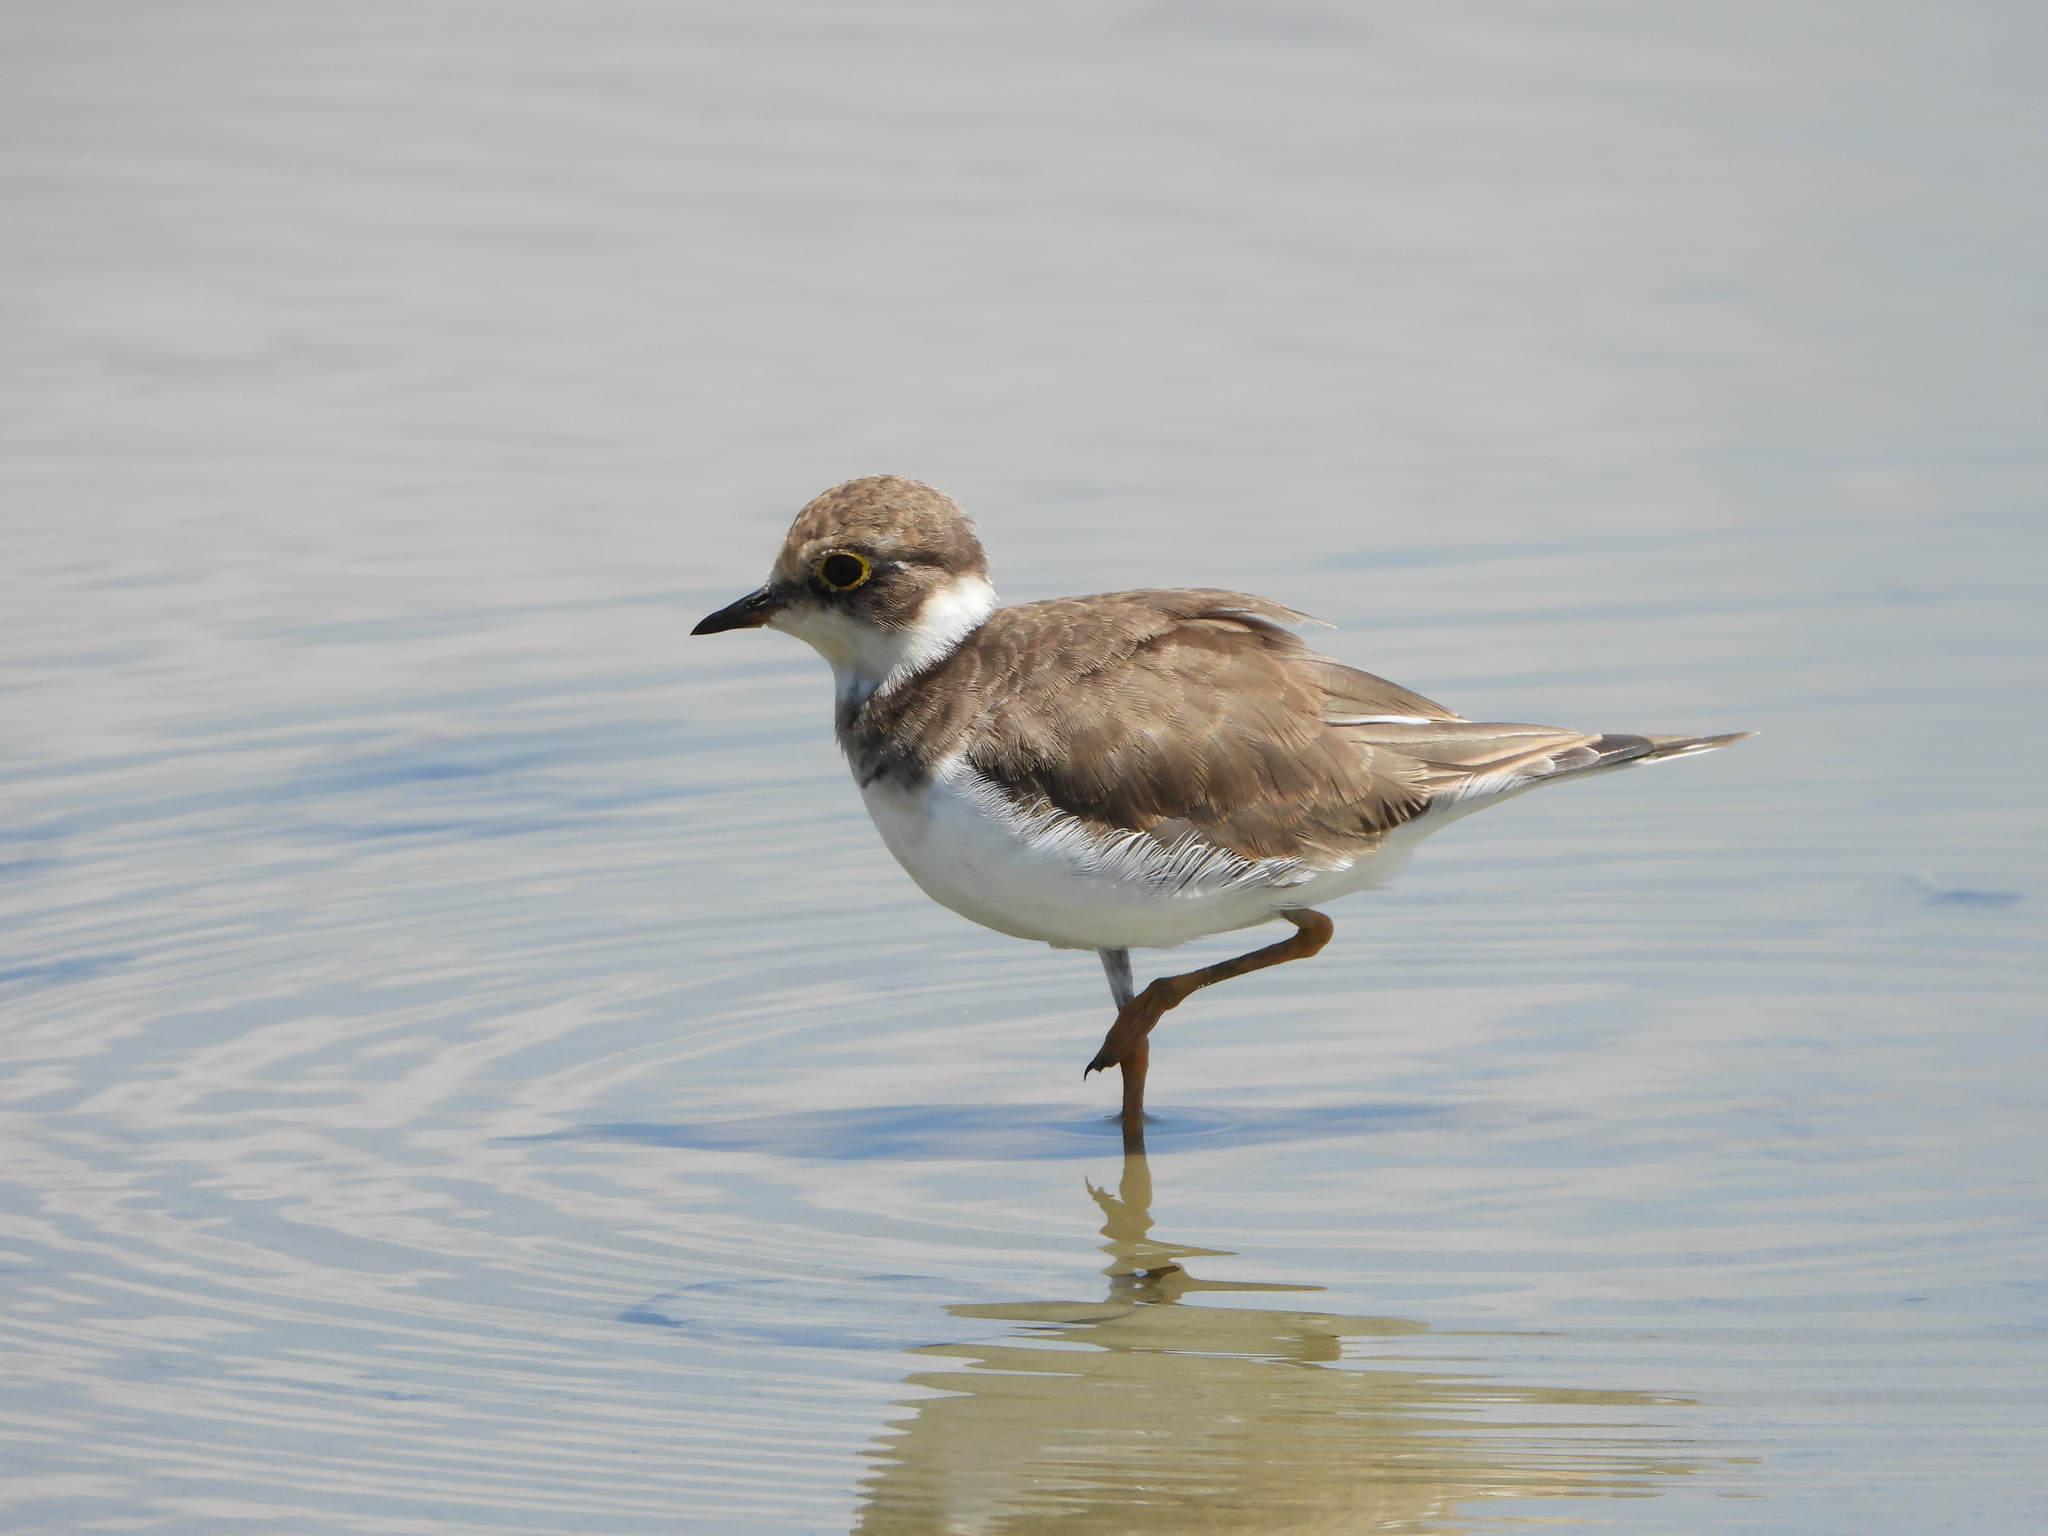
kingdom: Animalia
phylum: Chordata
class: Aves
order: Charadriiformes
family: Charadriidae
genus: Charadrius
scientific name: Charadrius dubius
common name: Little ringed plover
